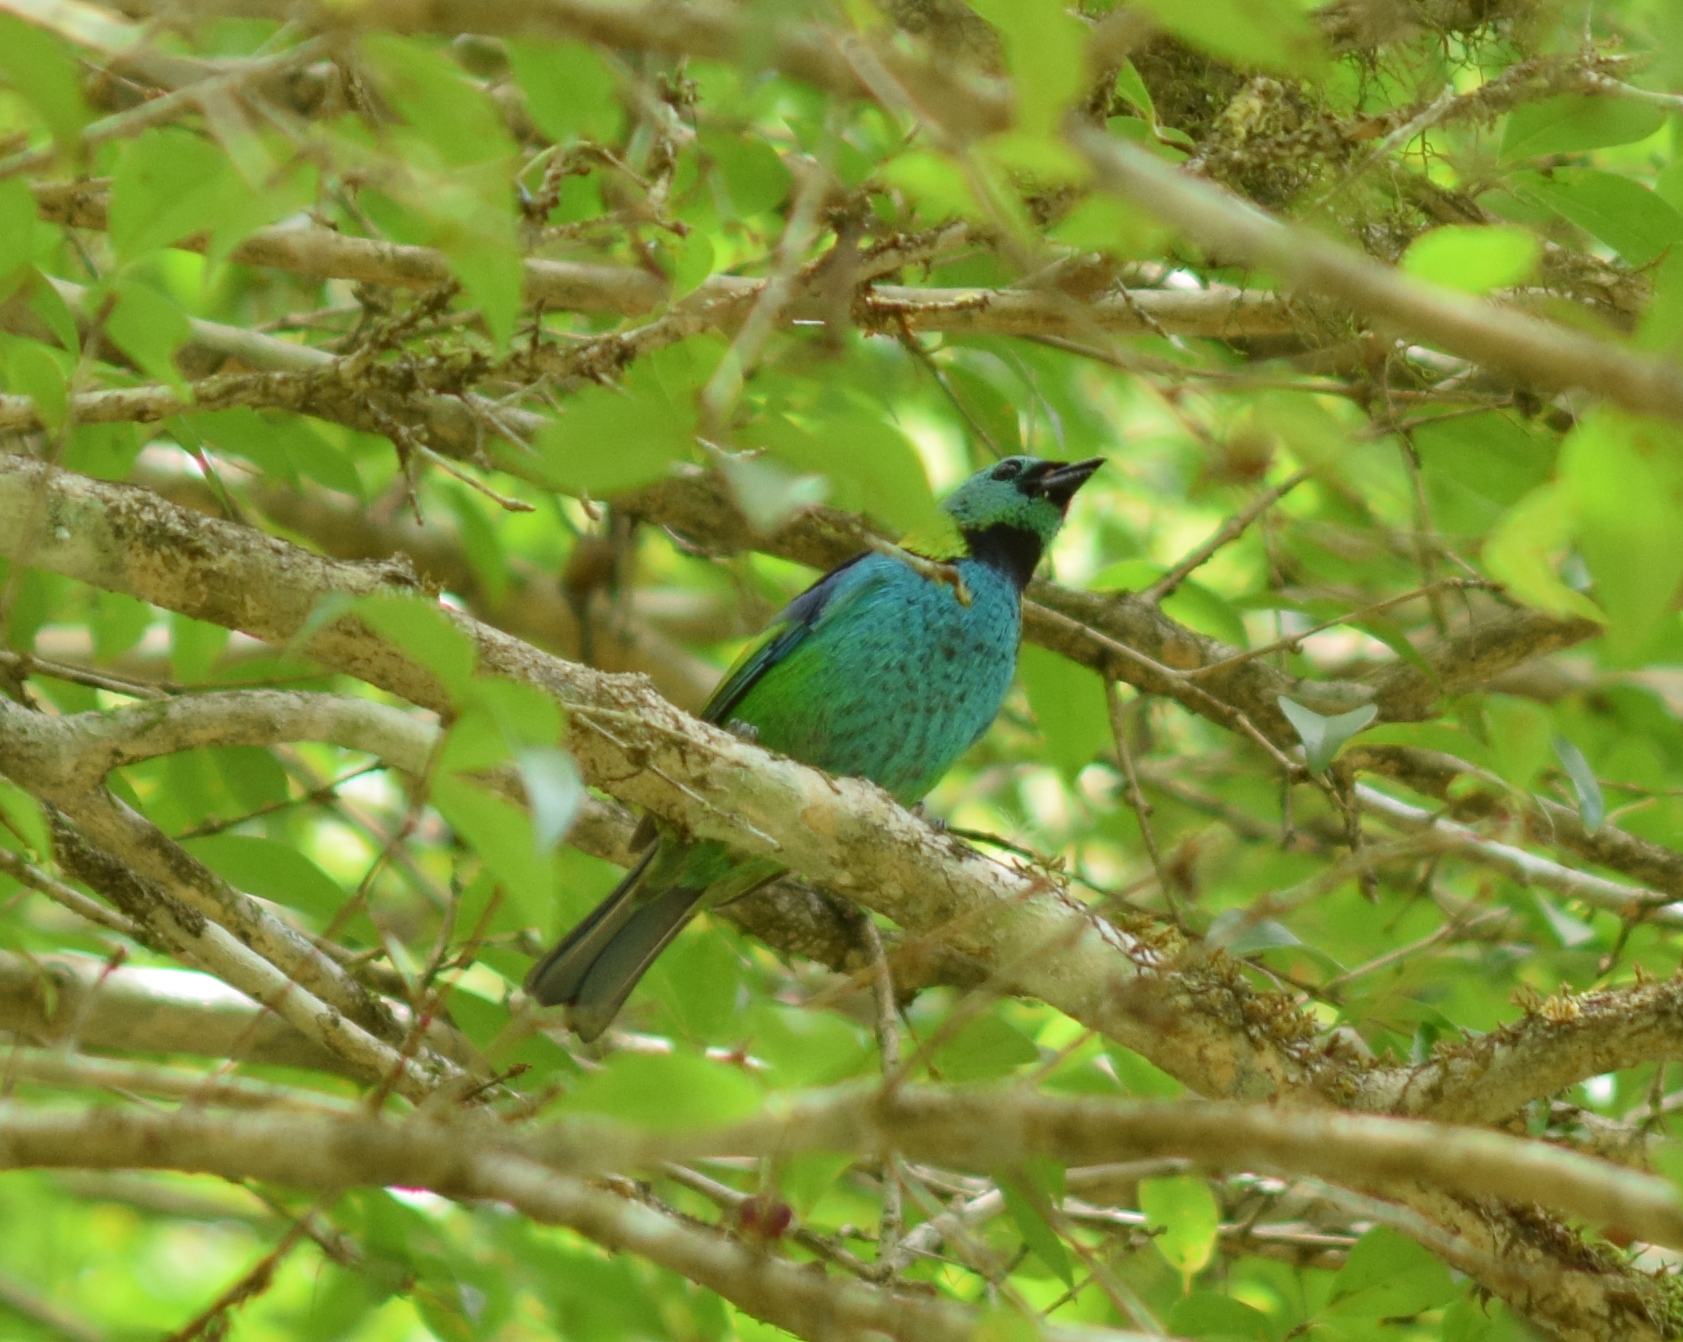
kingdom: Animalia
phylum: Chordata
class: Aves
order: Passeriformes
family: Thraupidae
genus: Tangara
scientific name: Tangara seledon
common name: Green-headed tanager
